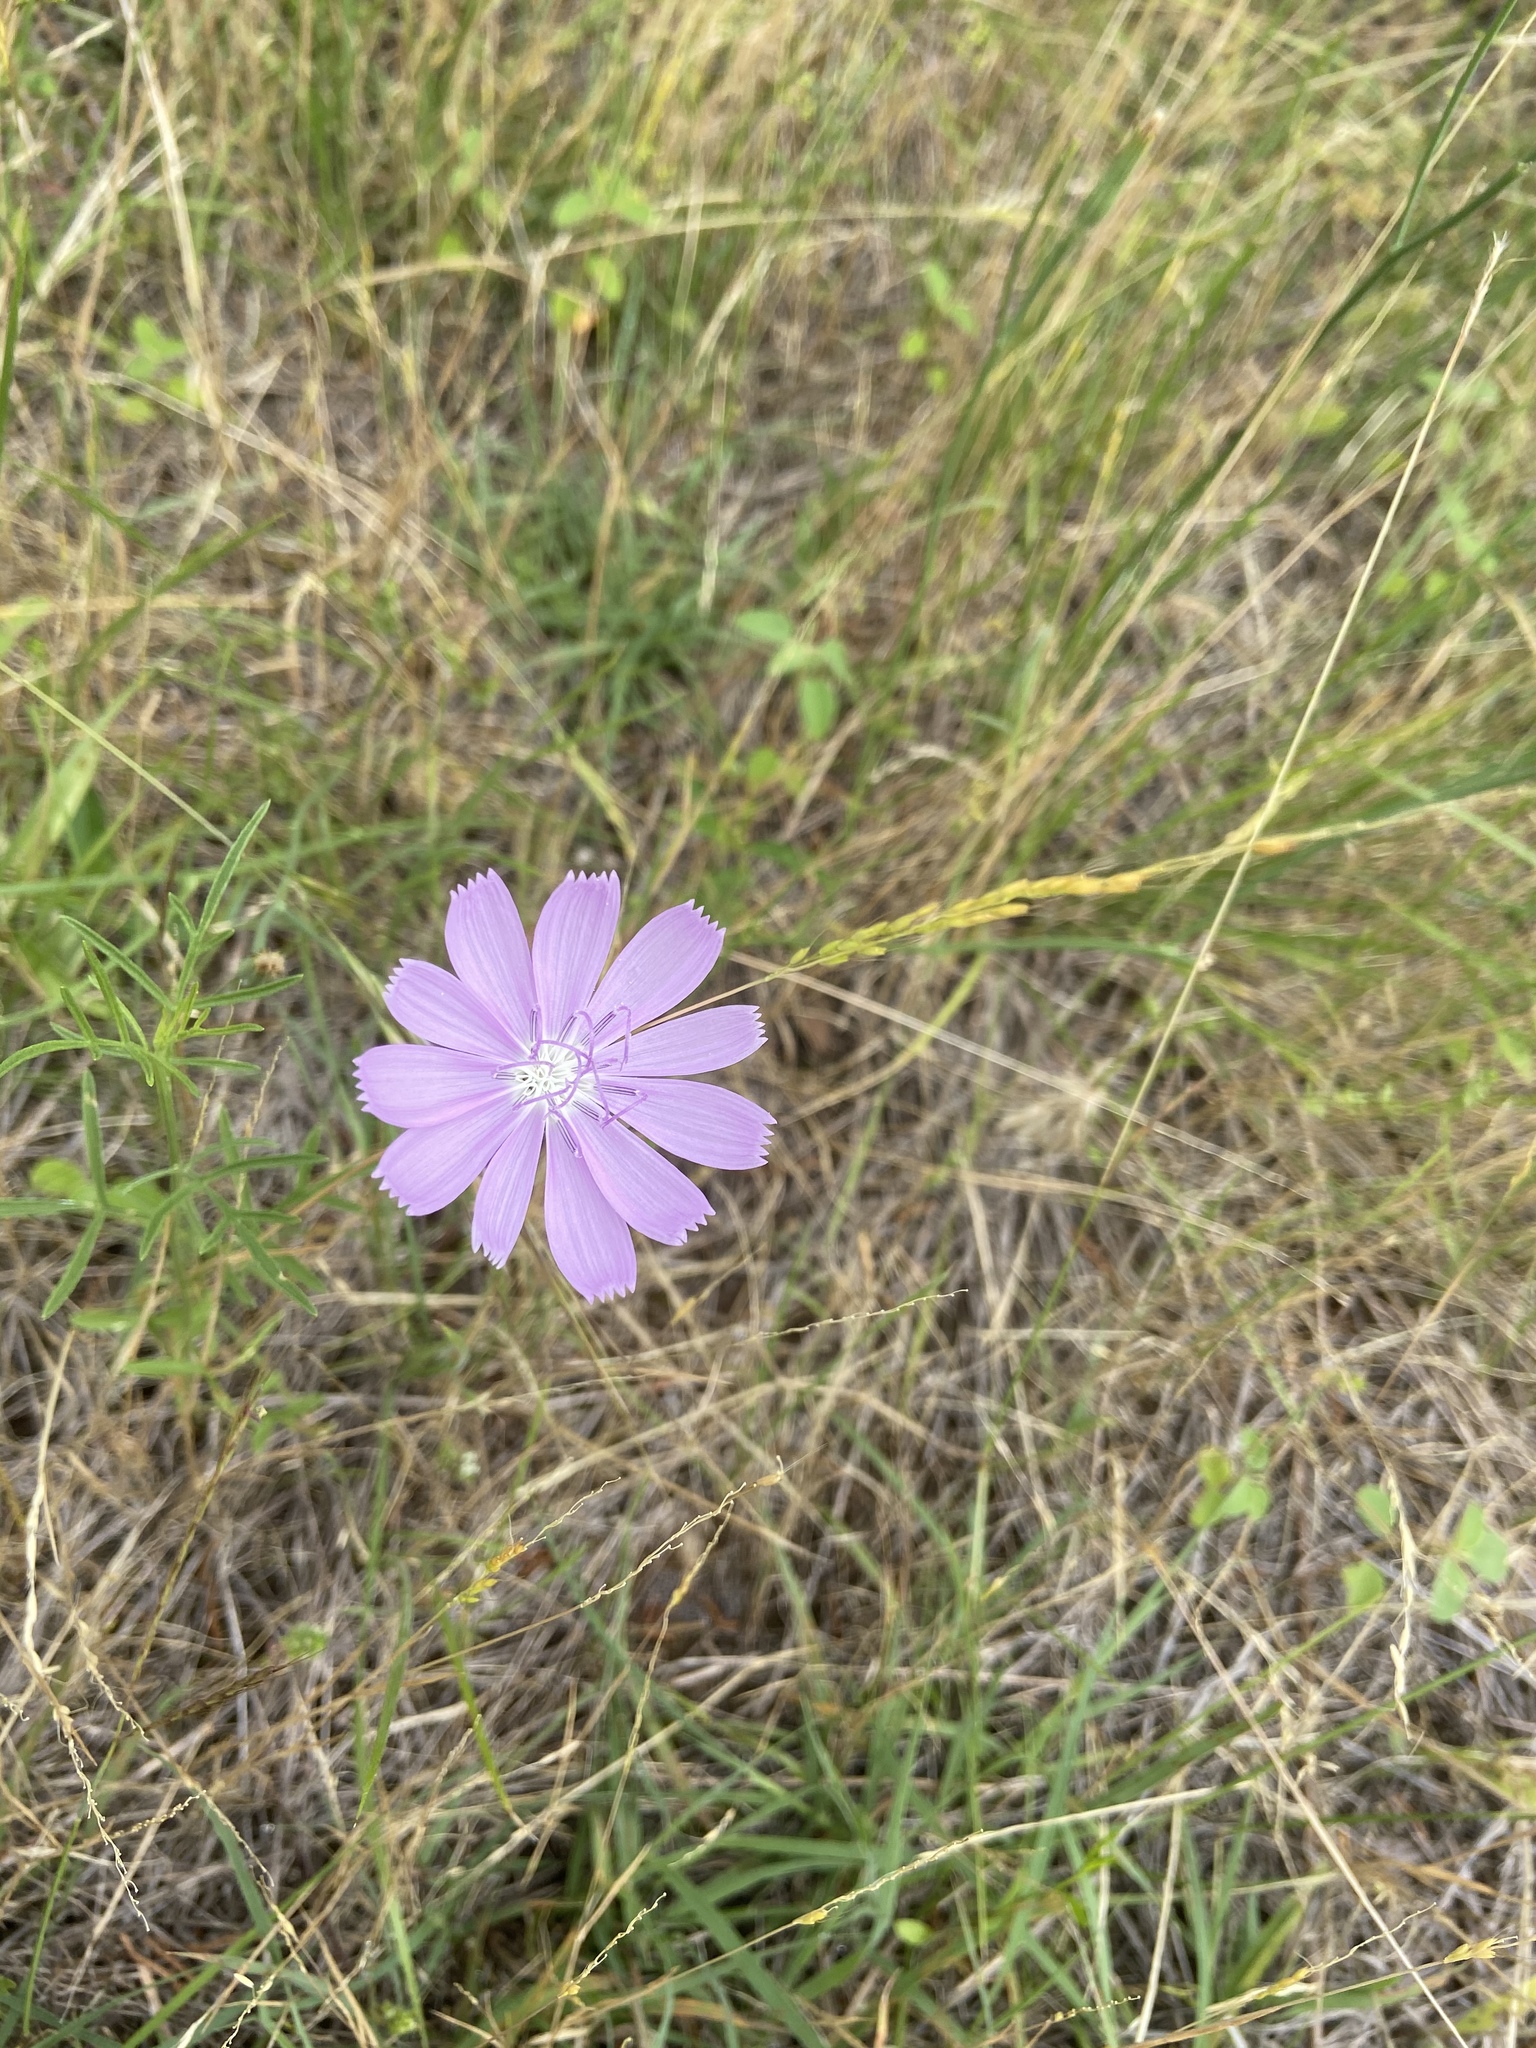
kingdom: Plantae
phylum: Tracheophyta
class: Magnoliopsida
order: Asterales
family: Asteraceae
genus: Lygodesmia
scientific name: Lygodesmia texana
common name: Texas skeleton-plant
